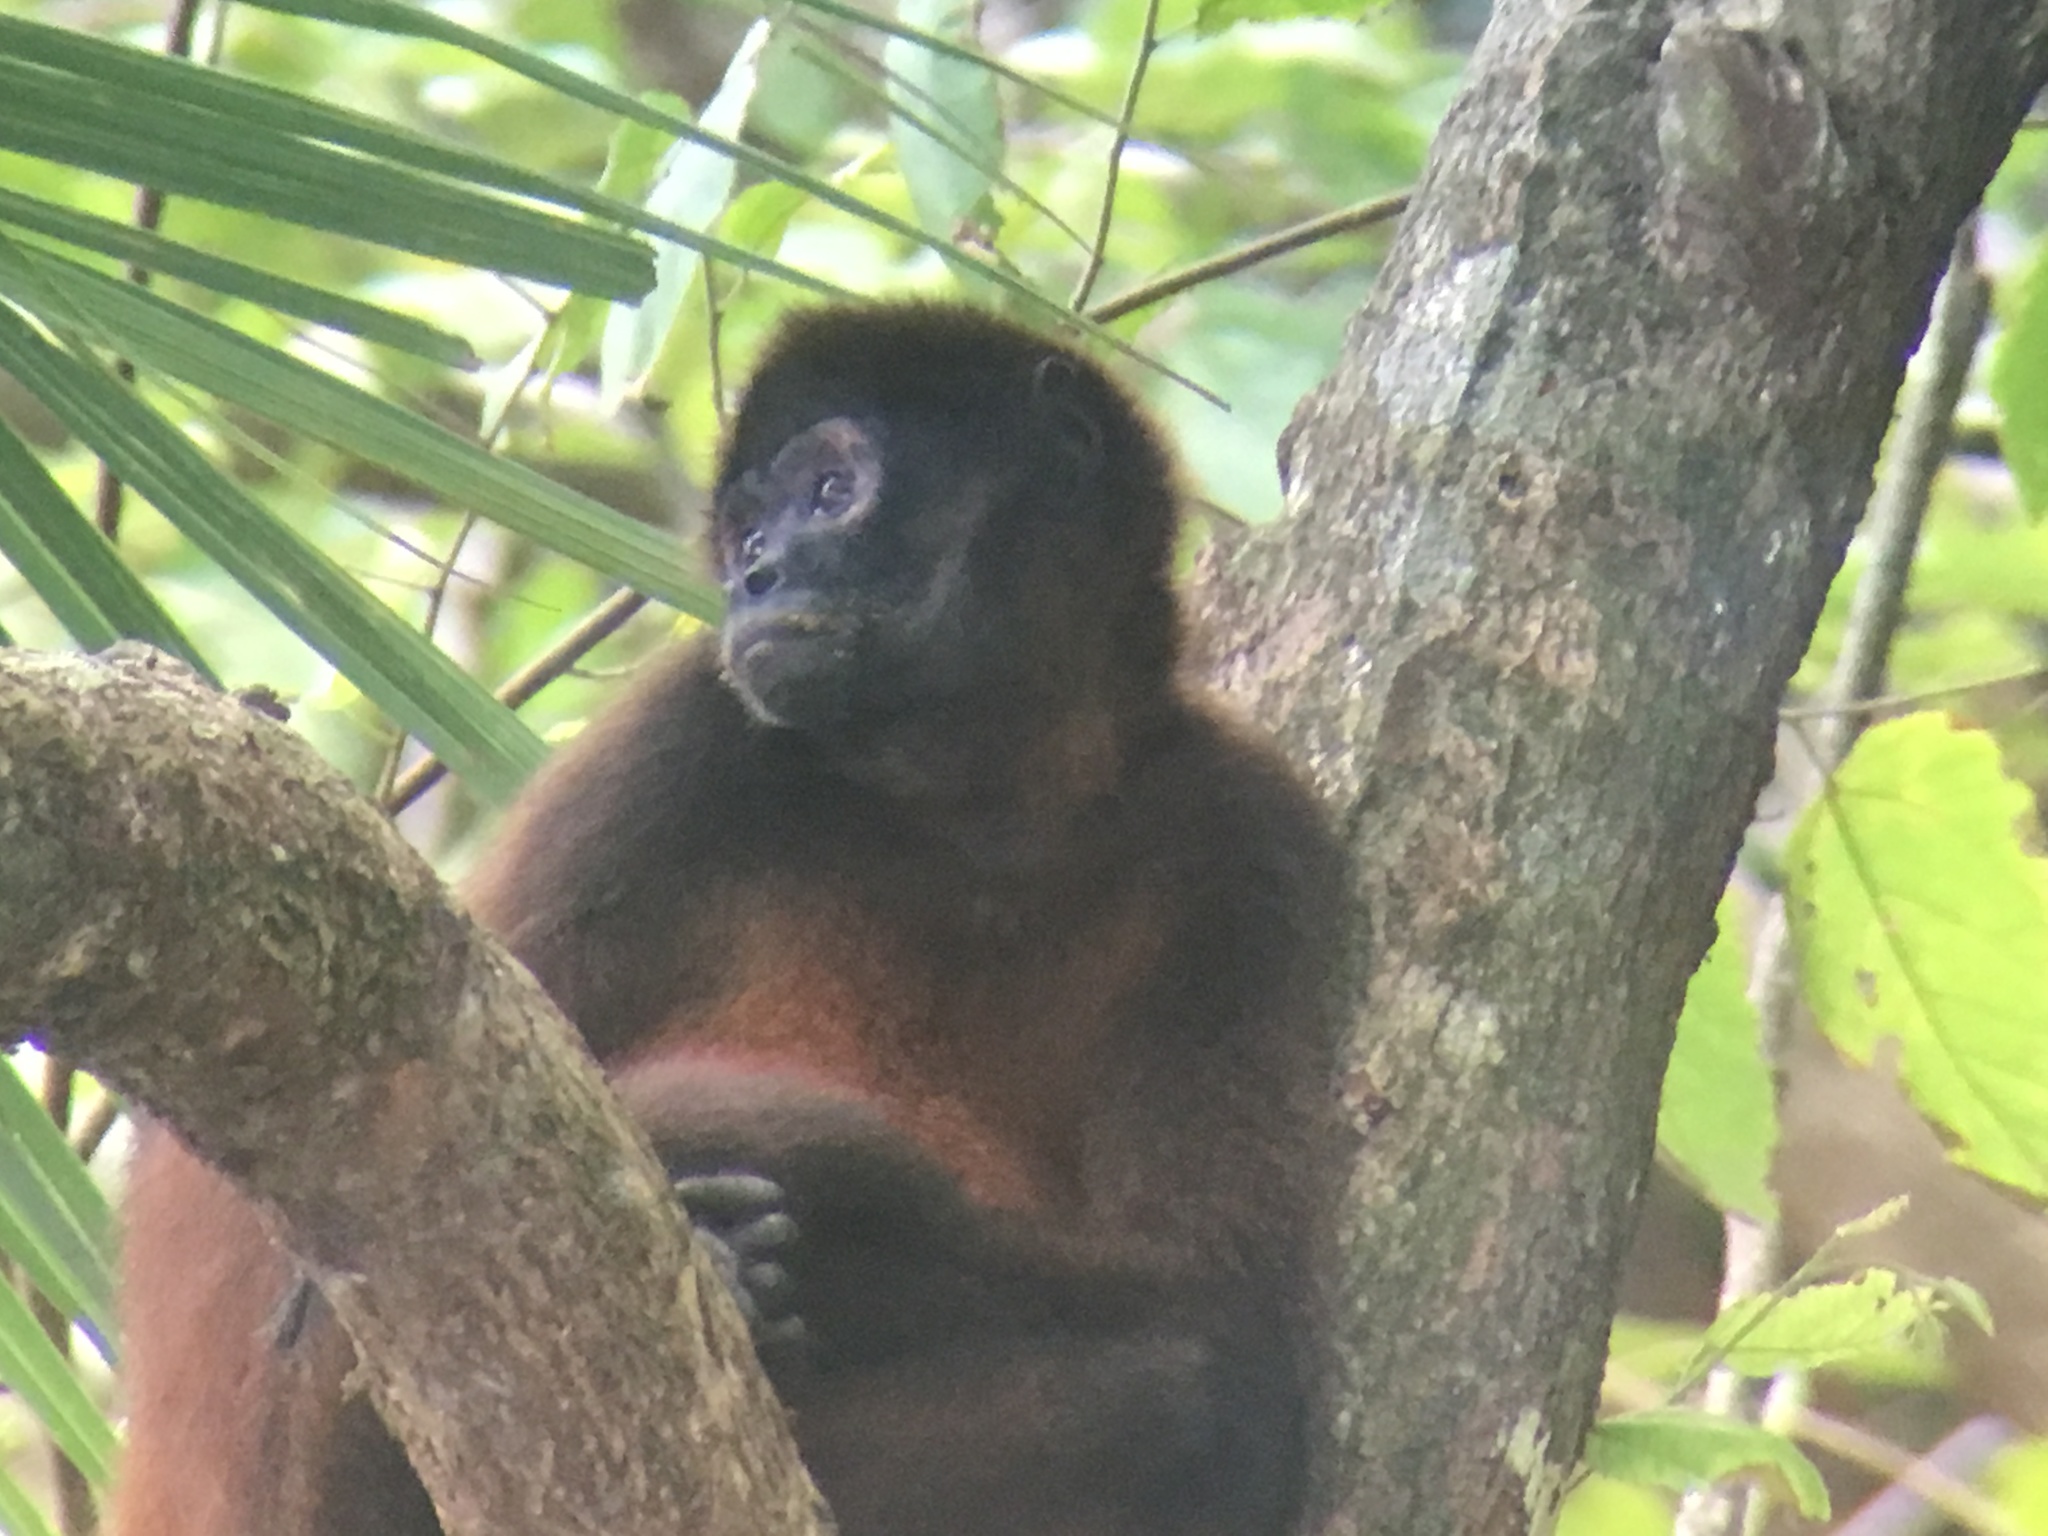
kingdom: Animalia
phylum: Chordata
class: Mammalia
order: Primates
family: Atelidae
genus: Ateles
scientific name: Ateles geoffroyi
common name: Black-handed spider monkey
